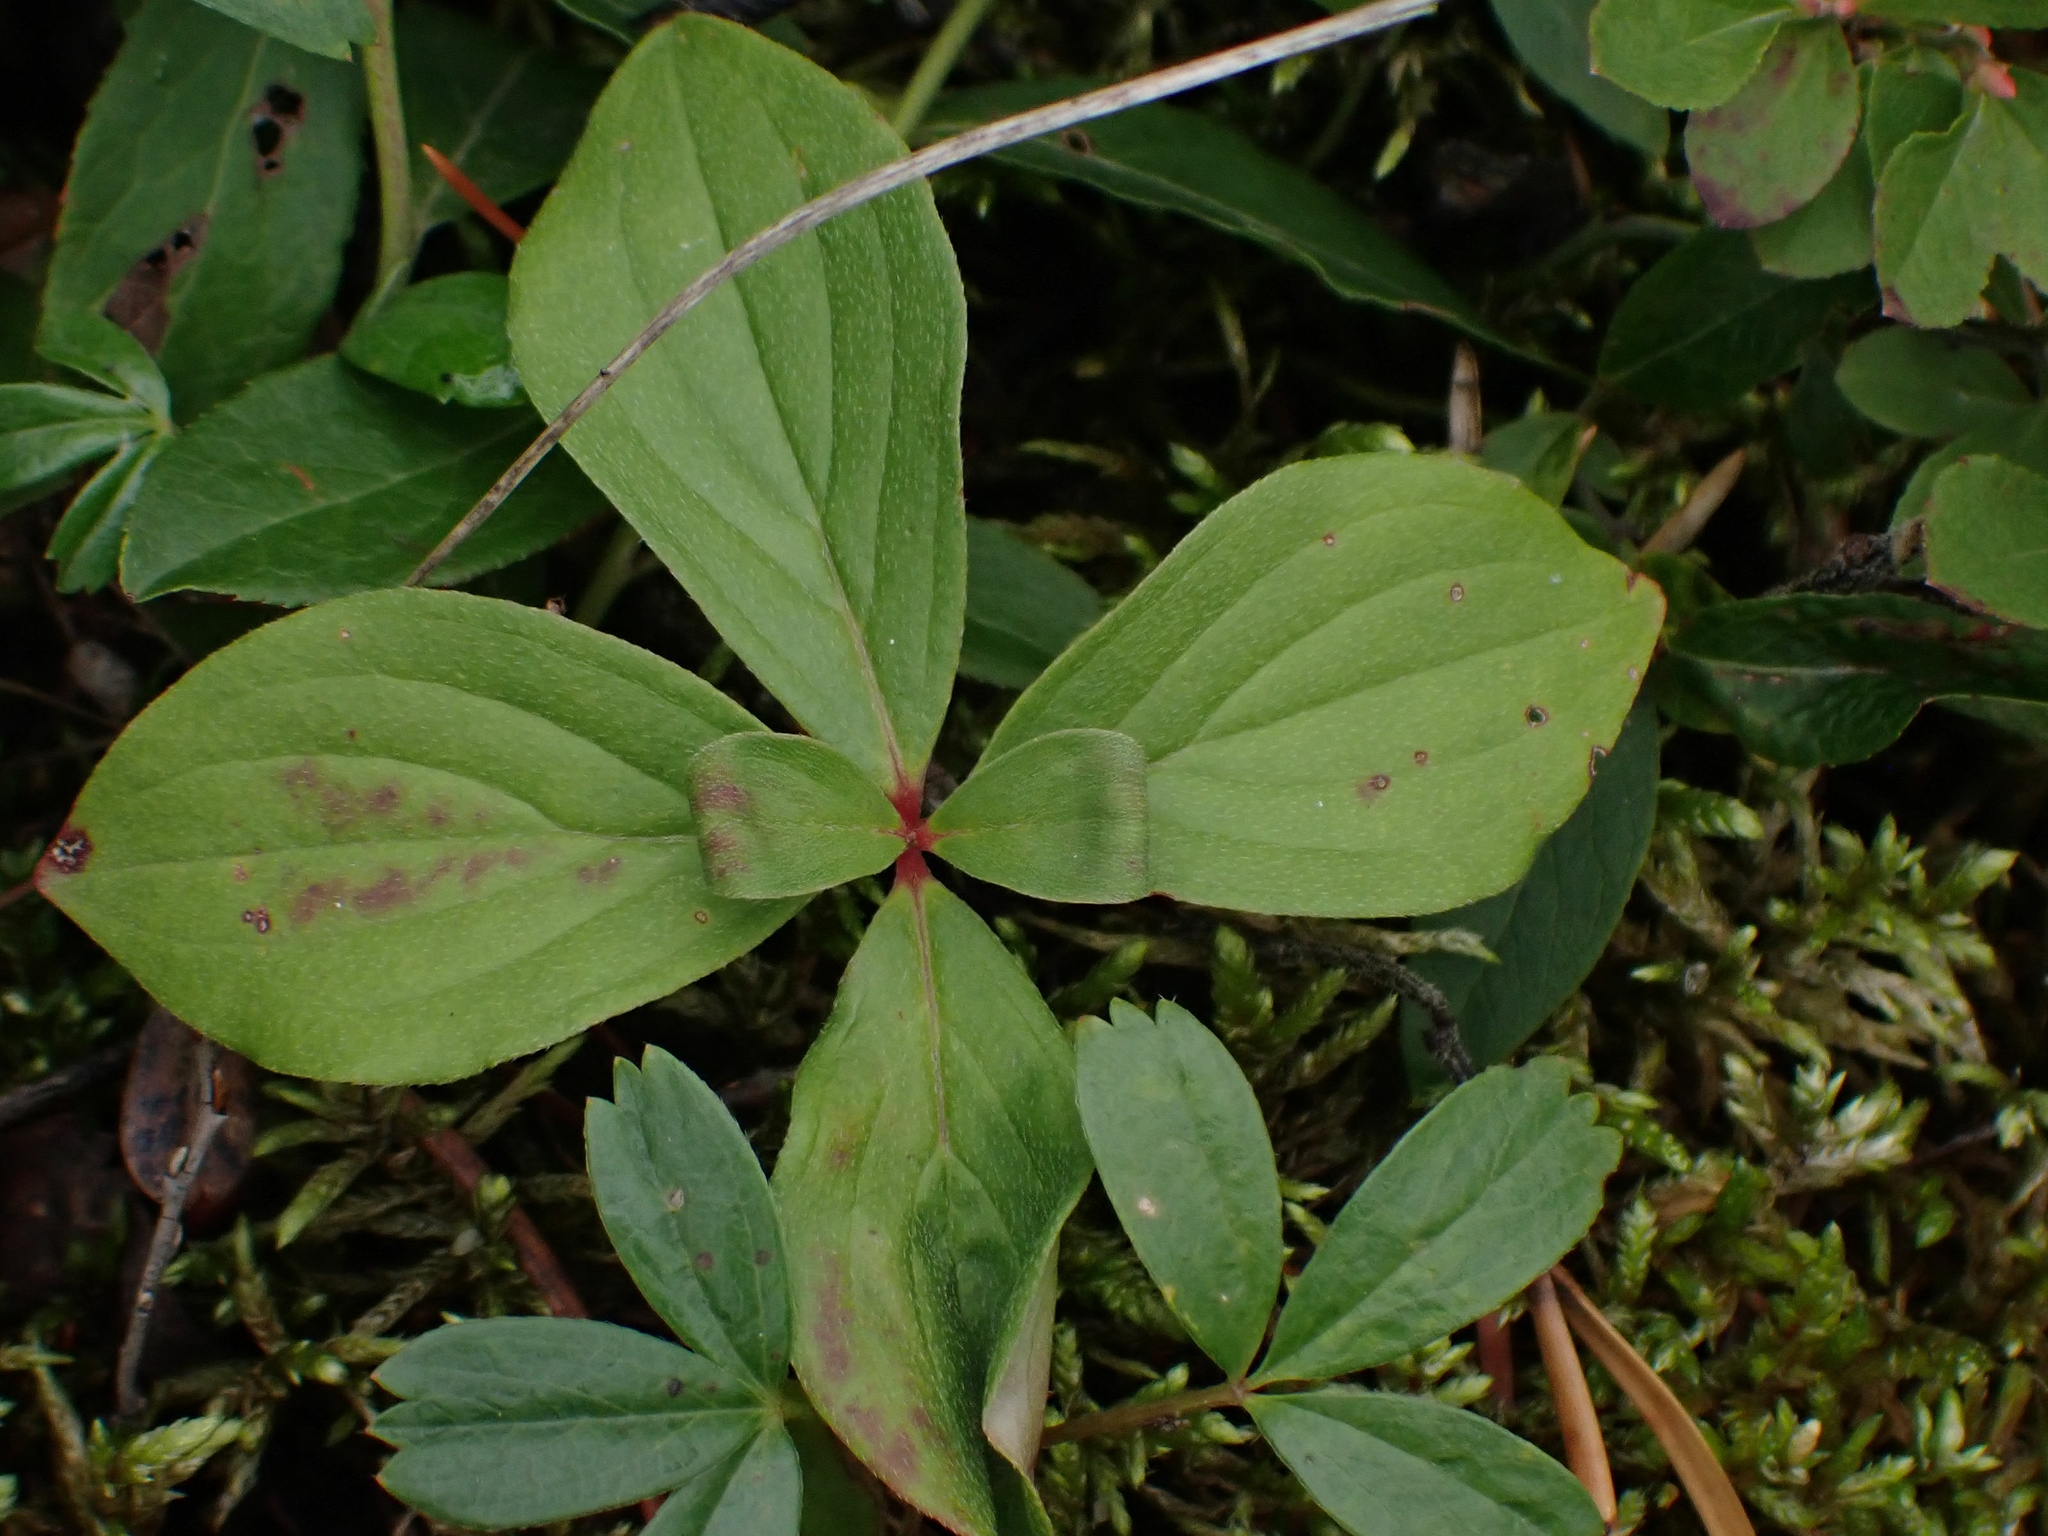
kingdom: Plantae
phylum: Tracheophyta
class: Magnoliopsida
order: Cornales
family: Cornaceae
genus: Cornus
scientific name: Cornus canadensis
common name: Creeping dogwood
